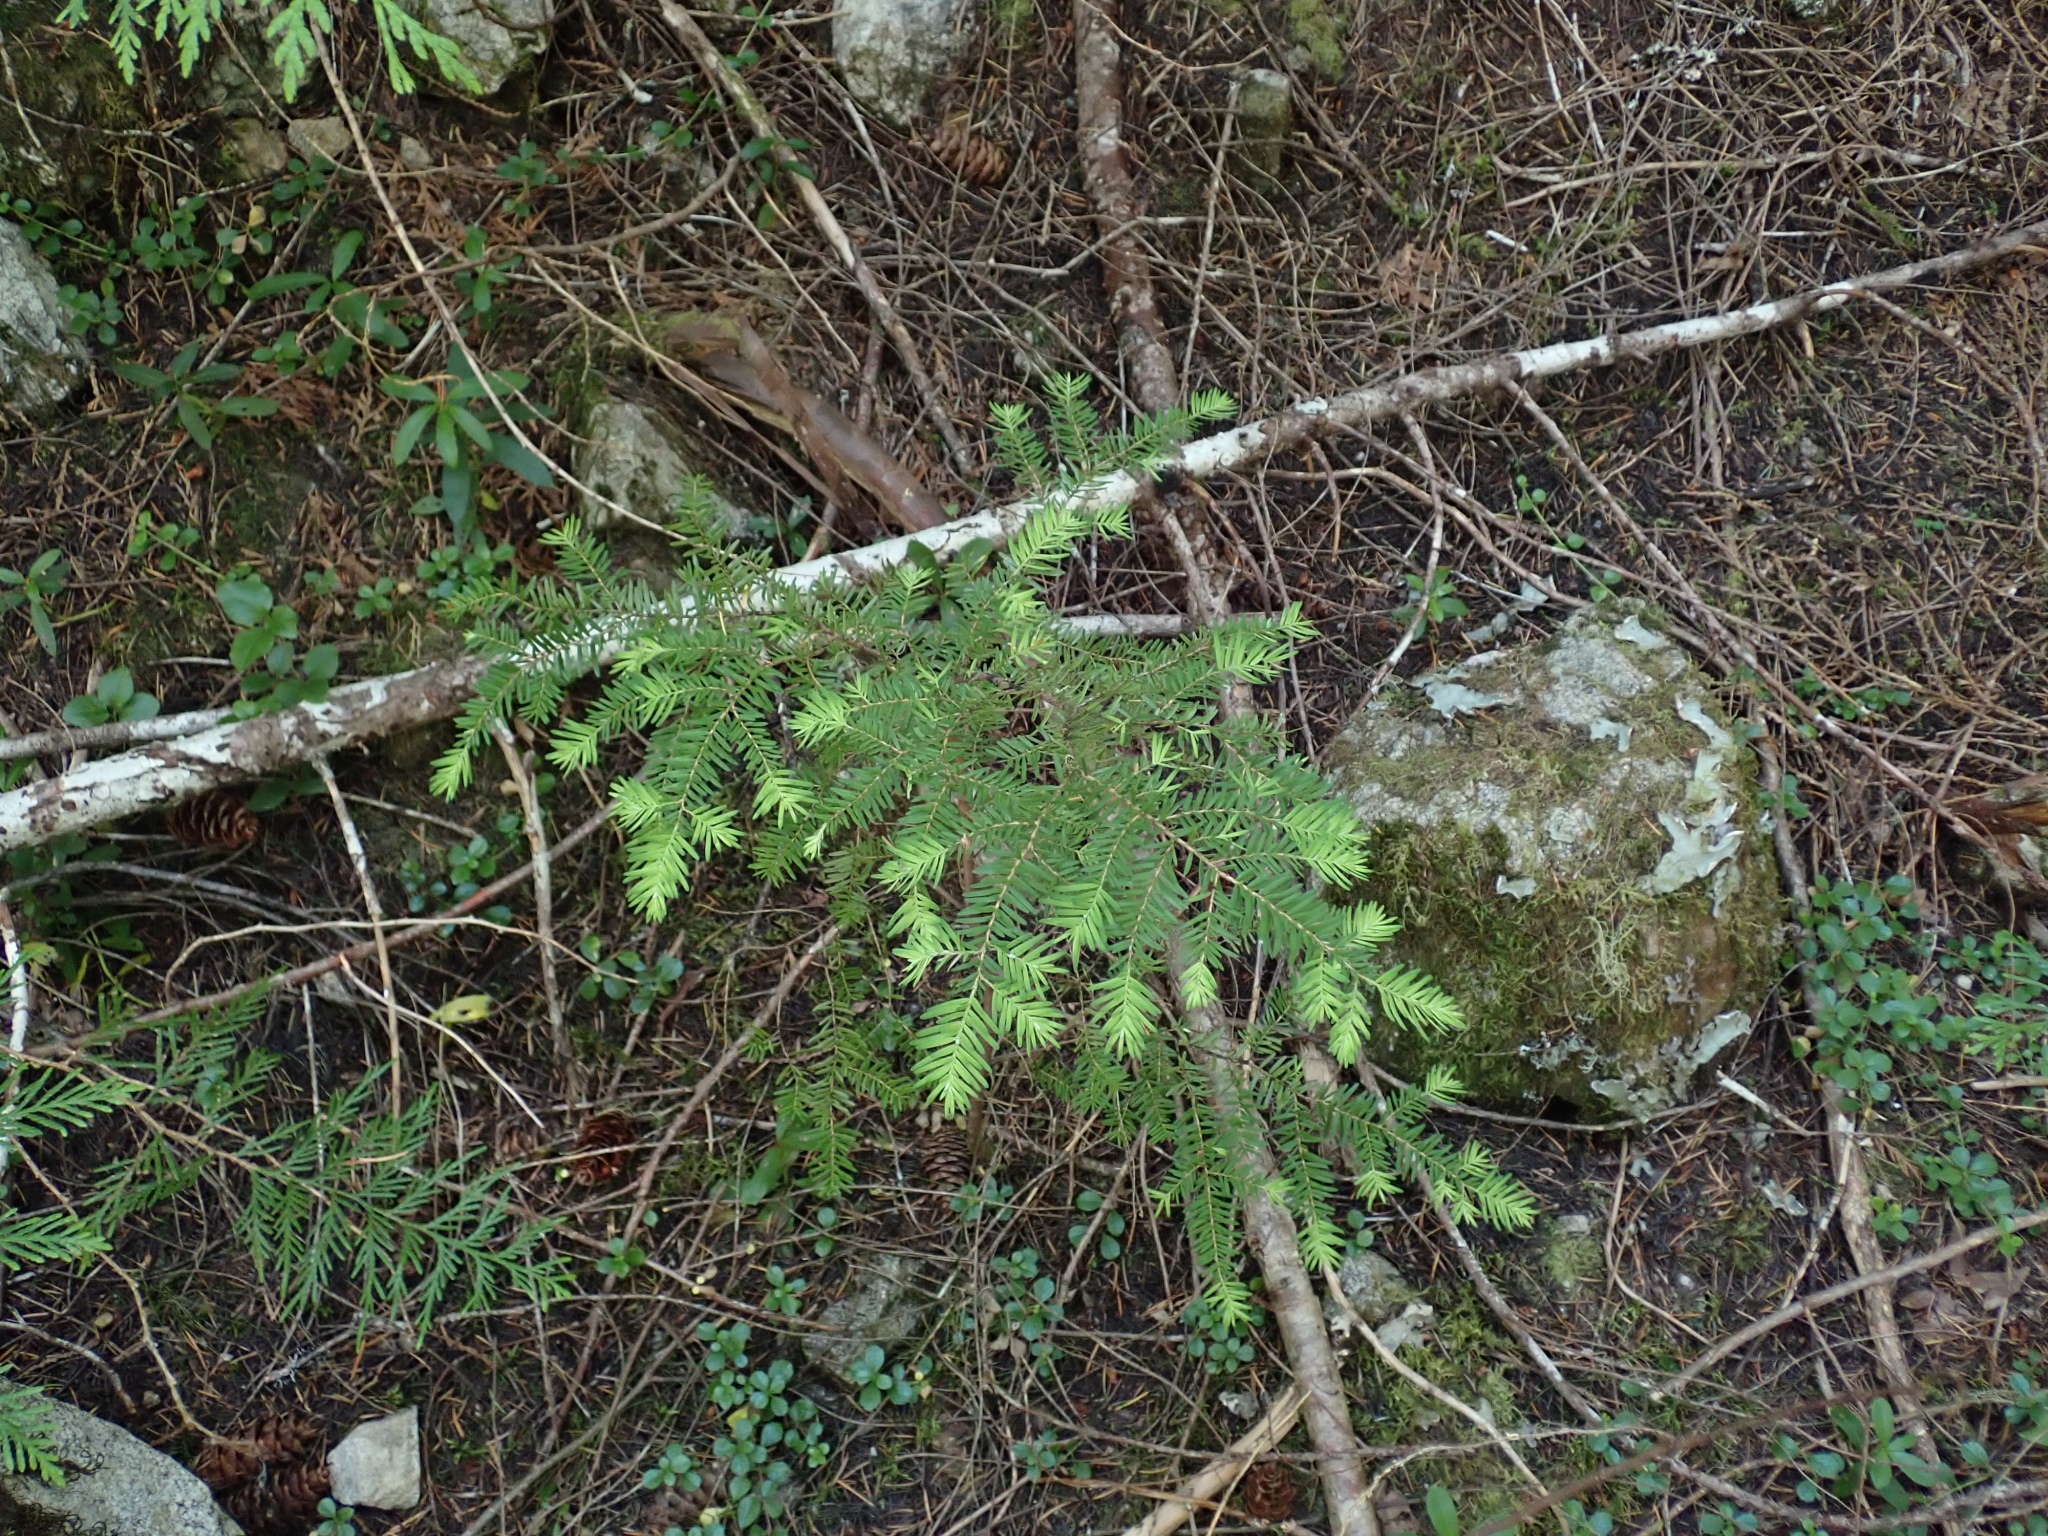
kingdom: Plantae
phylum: Tracheophyta
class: Pinopsida
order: Pinales
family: Pinaceae
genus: Tsuga
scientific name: Tsuga heterophylla
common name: Western hemlock
